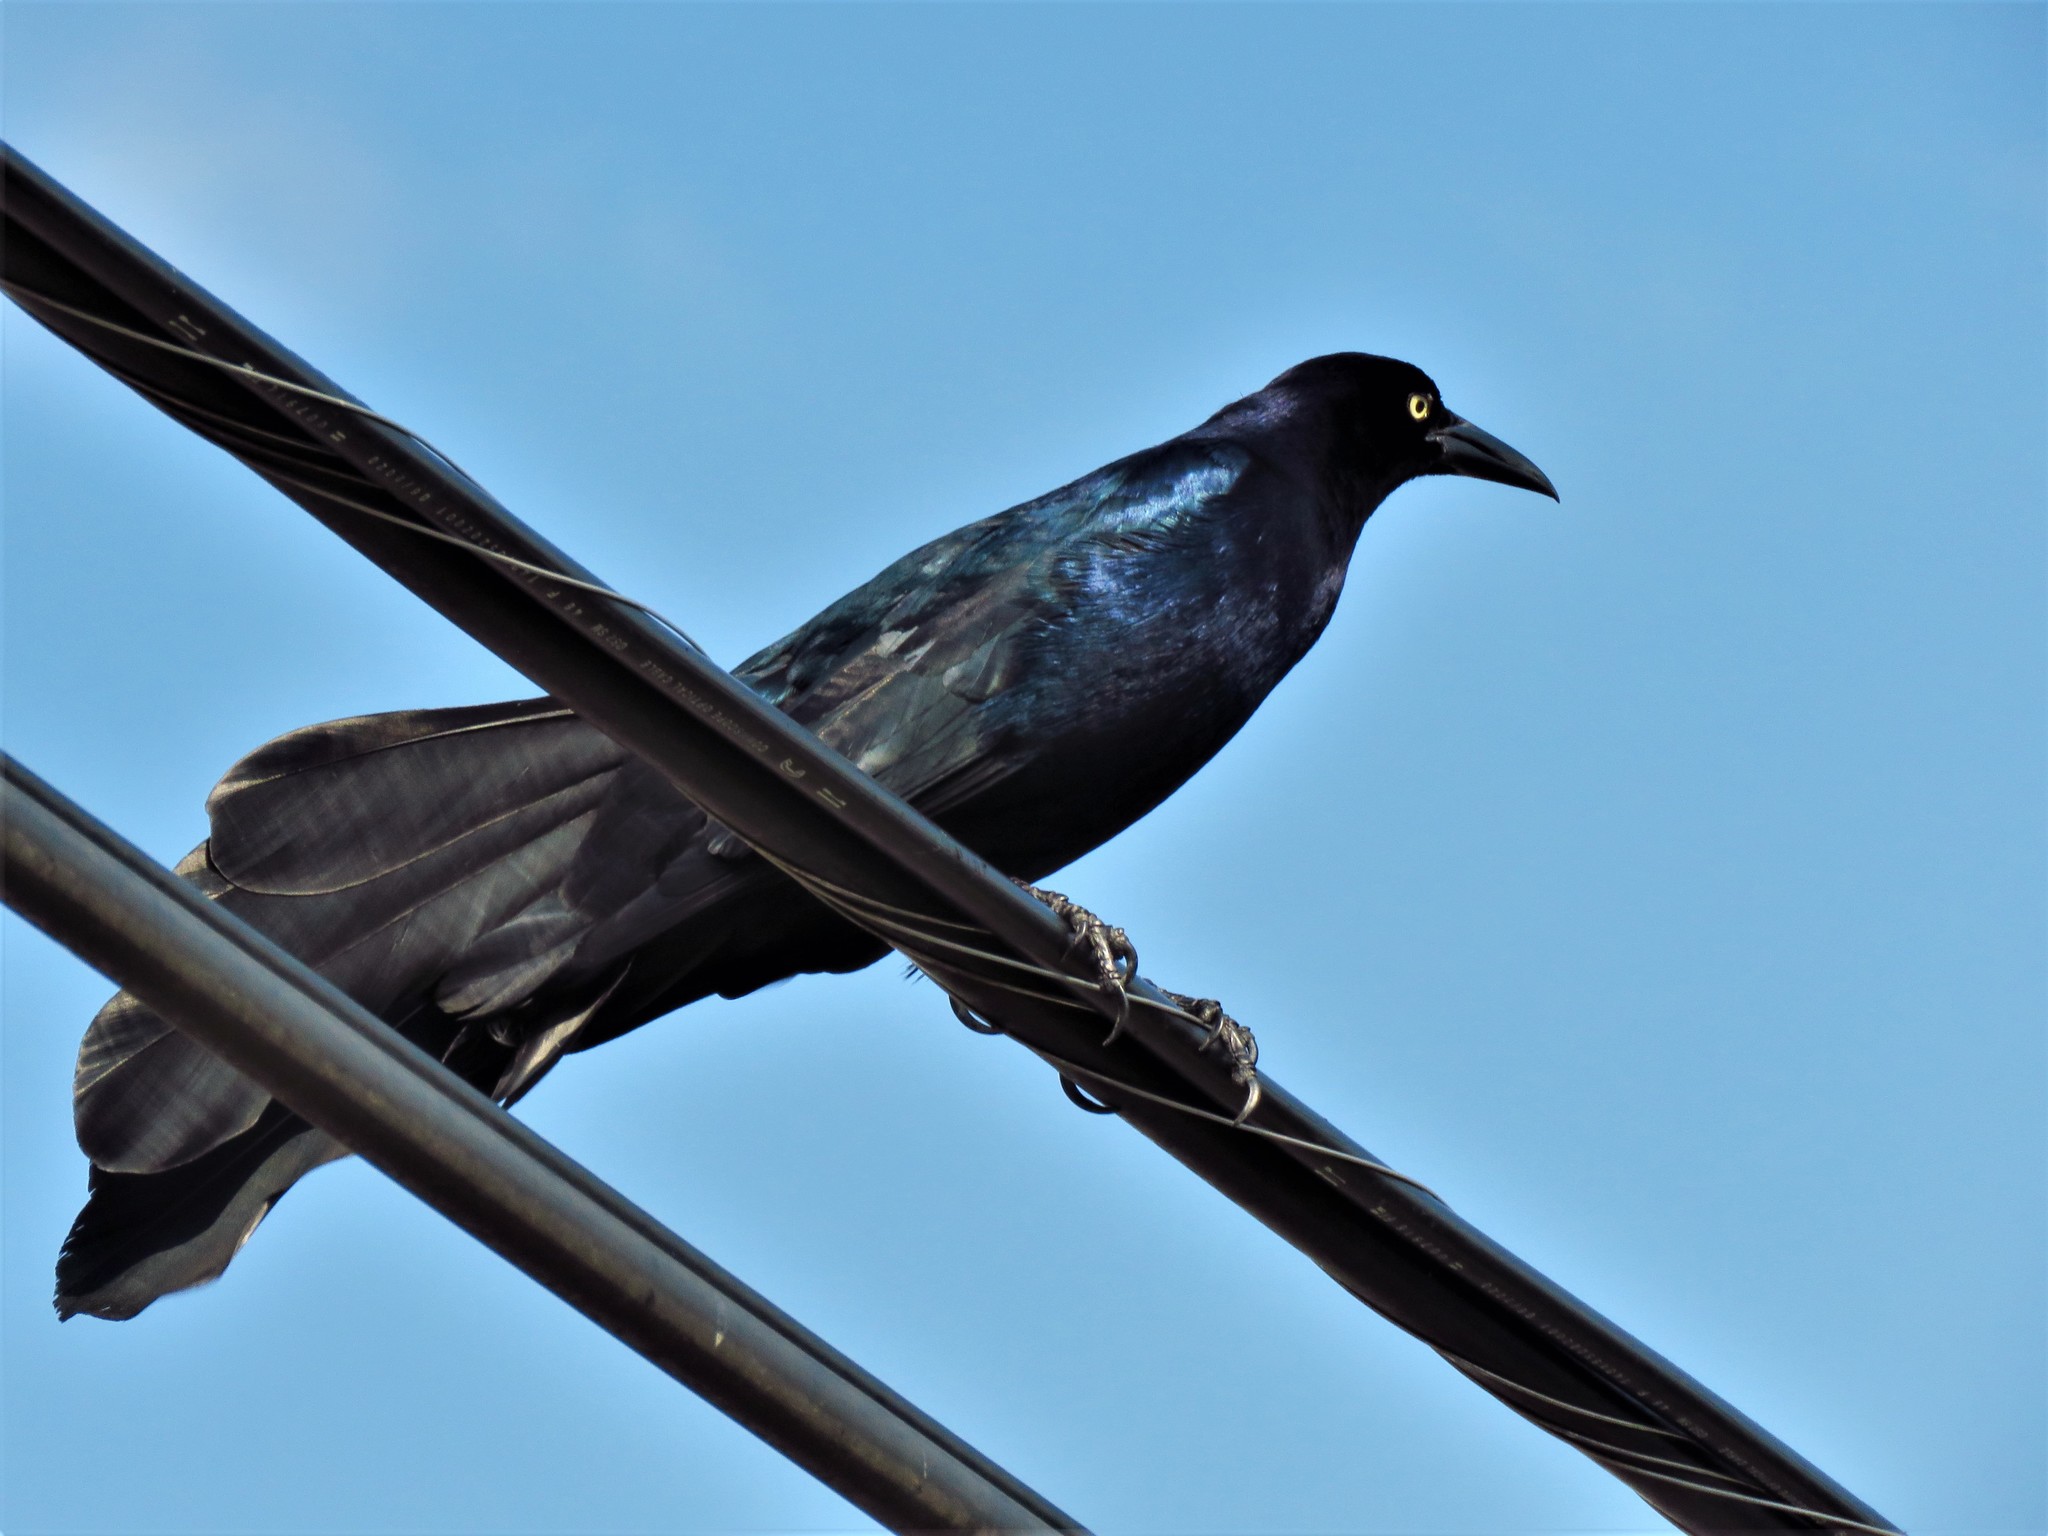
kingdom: Animalia
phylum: Chordata
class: Aves
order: Passeriformes
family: Icteridae
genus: Quiscalus
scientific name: Quiscalus mexicanus
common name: Great-tailed grackle
